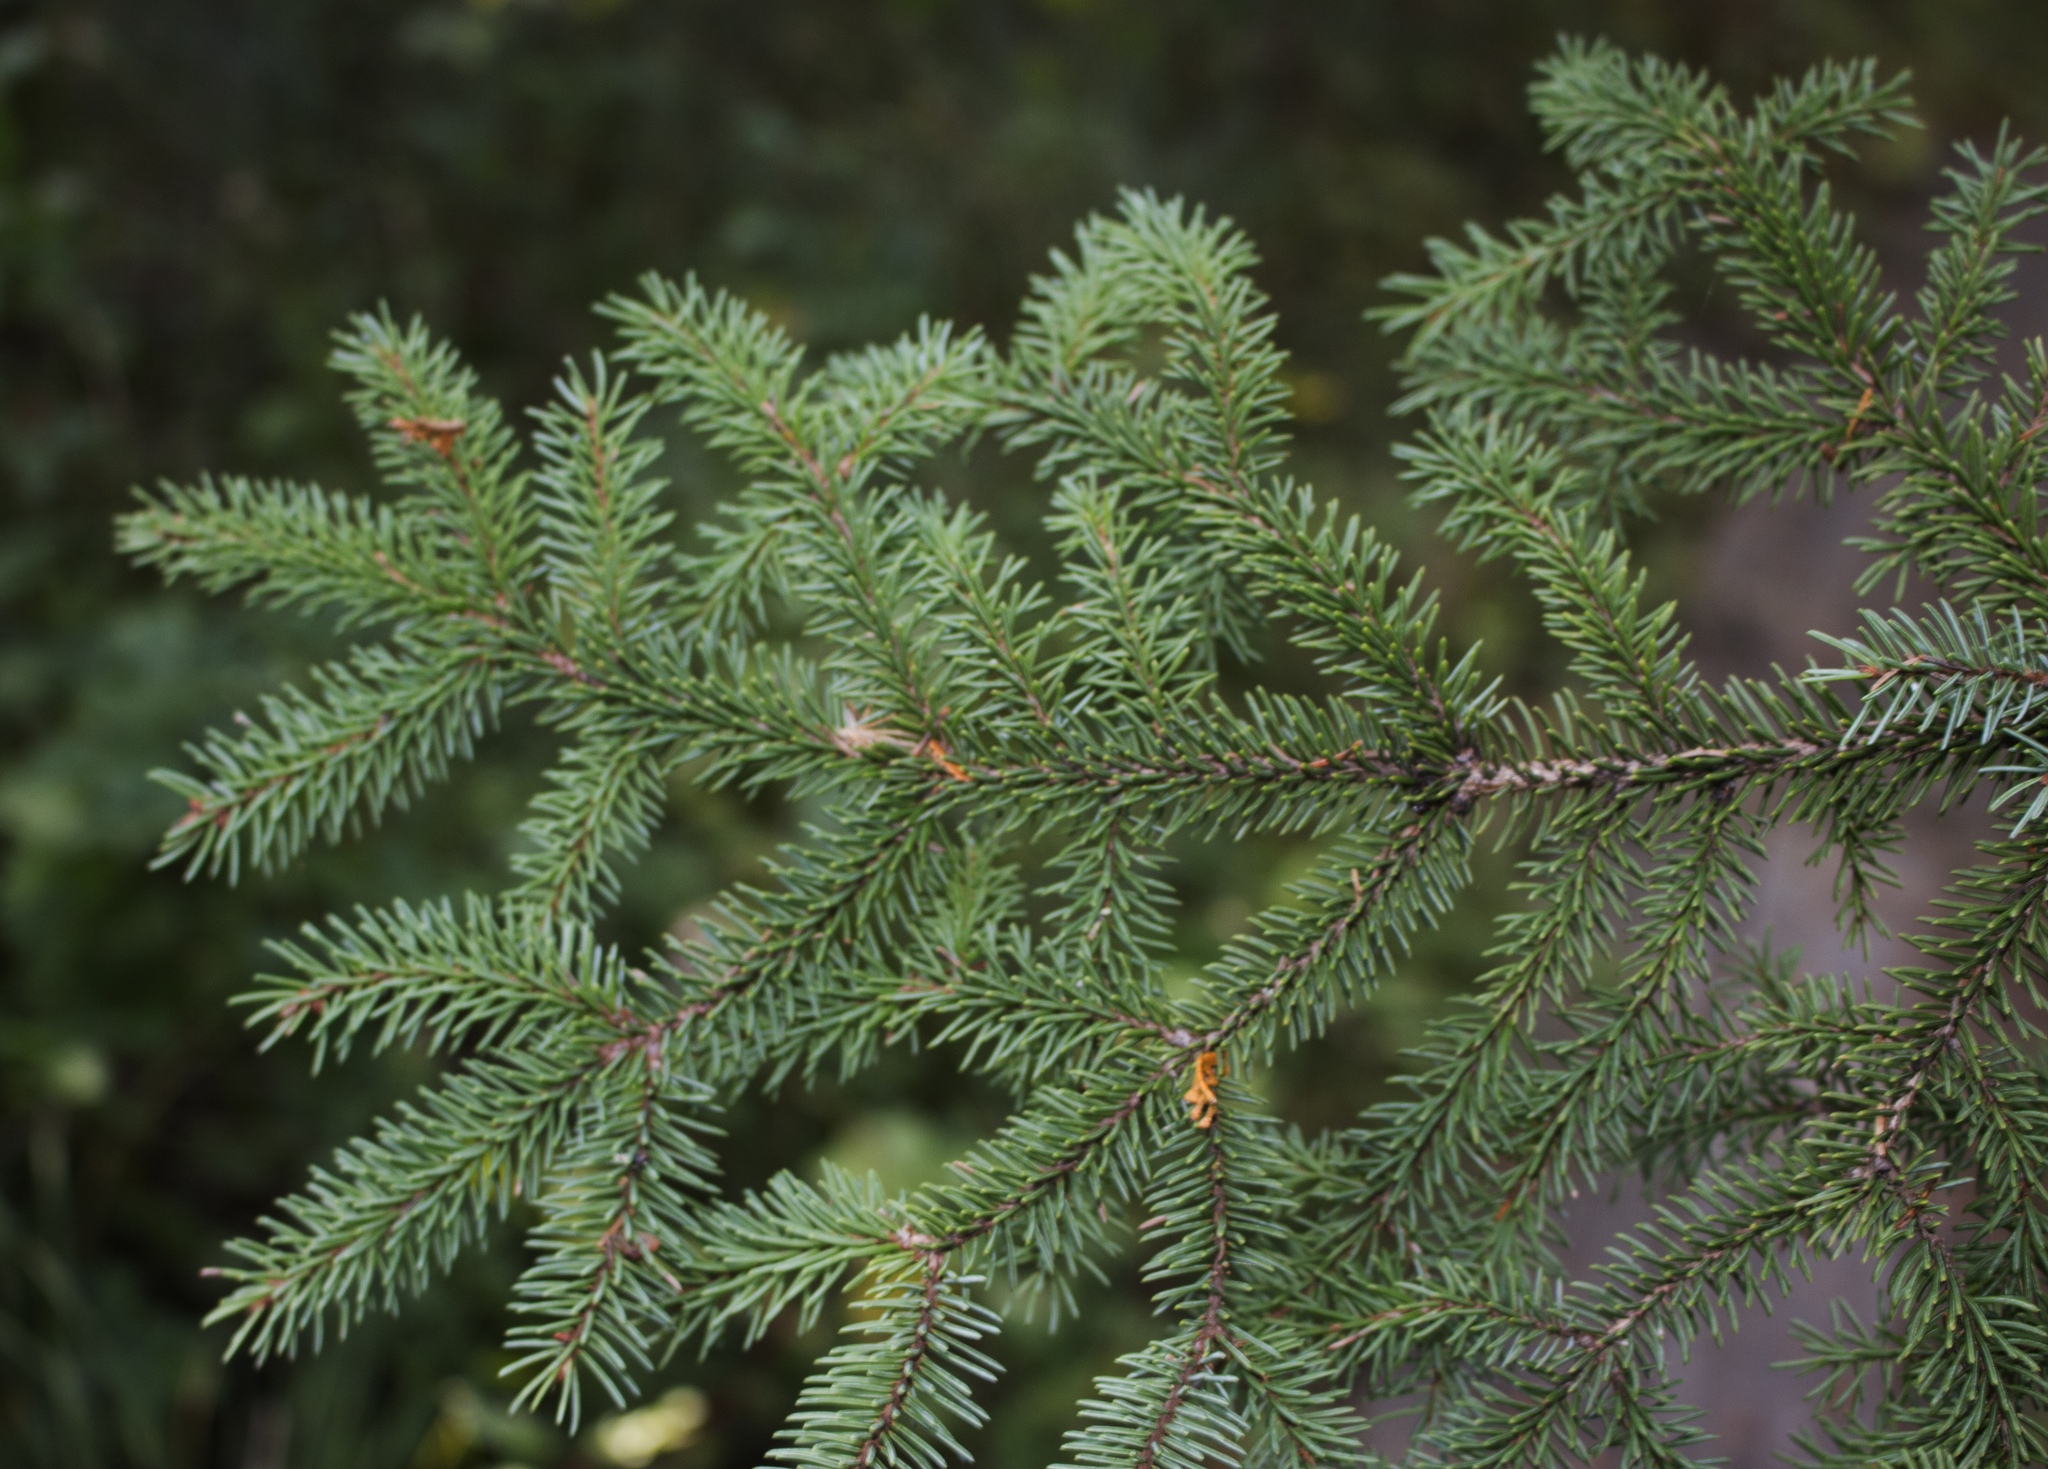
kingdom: Plantae
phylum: Tracheophyta
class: Pinopsida
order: Pinales
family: Pinaceae
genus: Picea
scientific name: Picea mariana
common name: Black spruce
